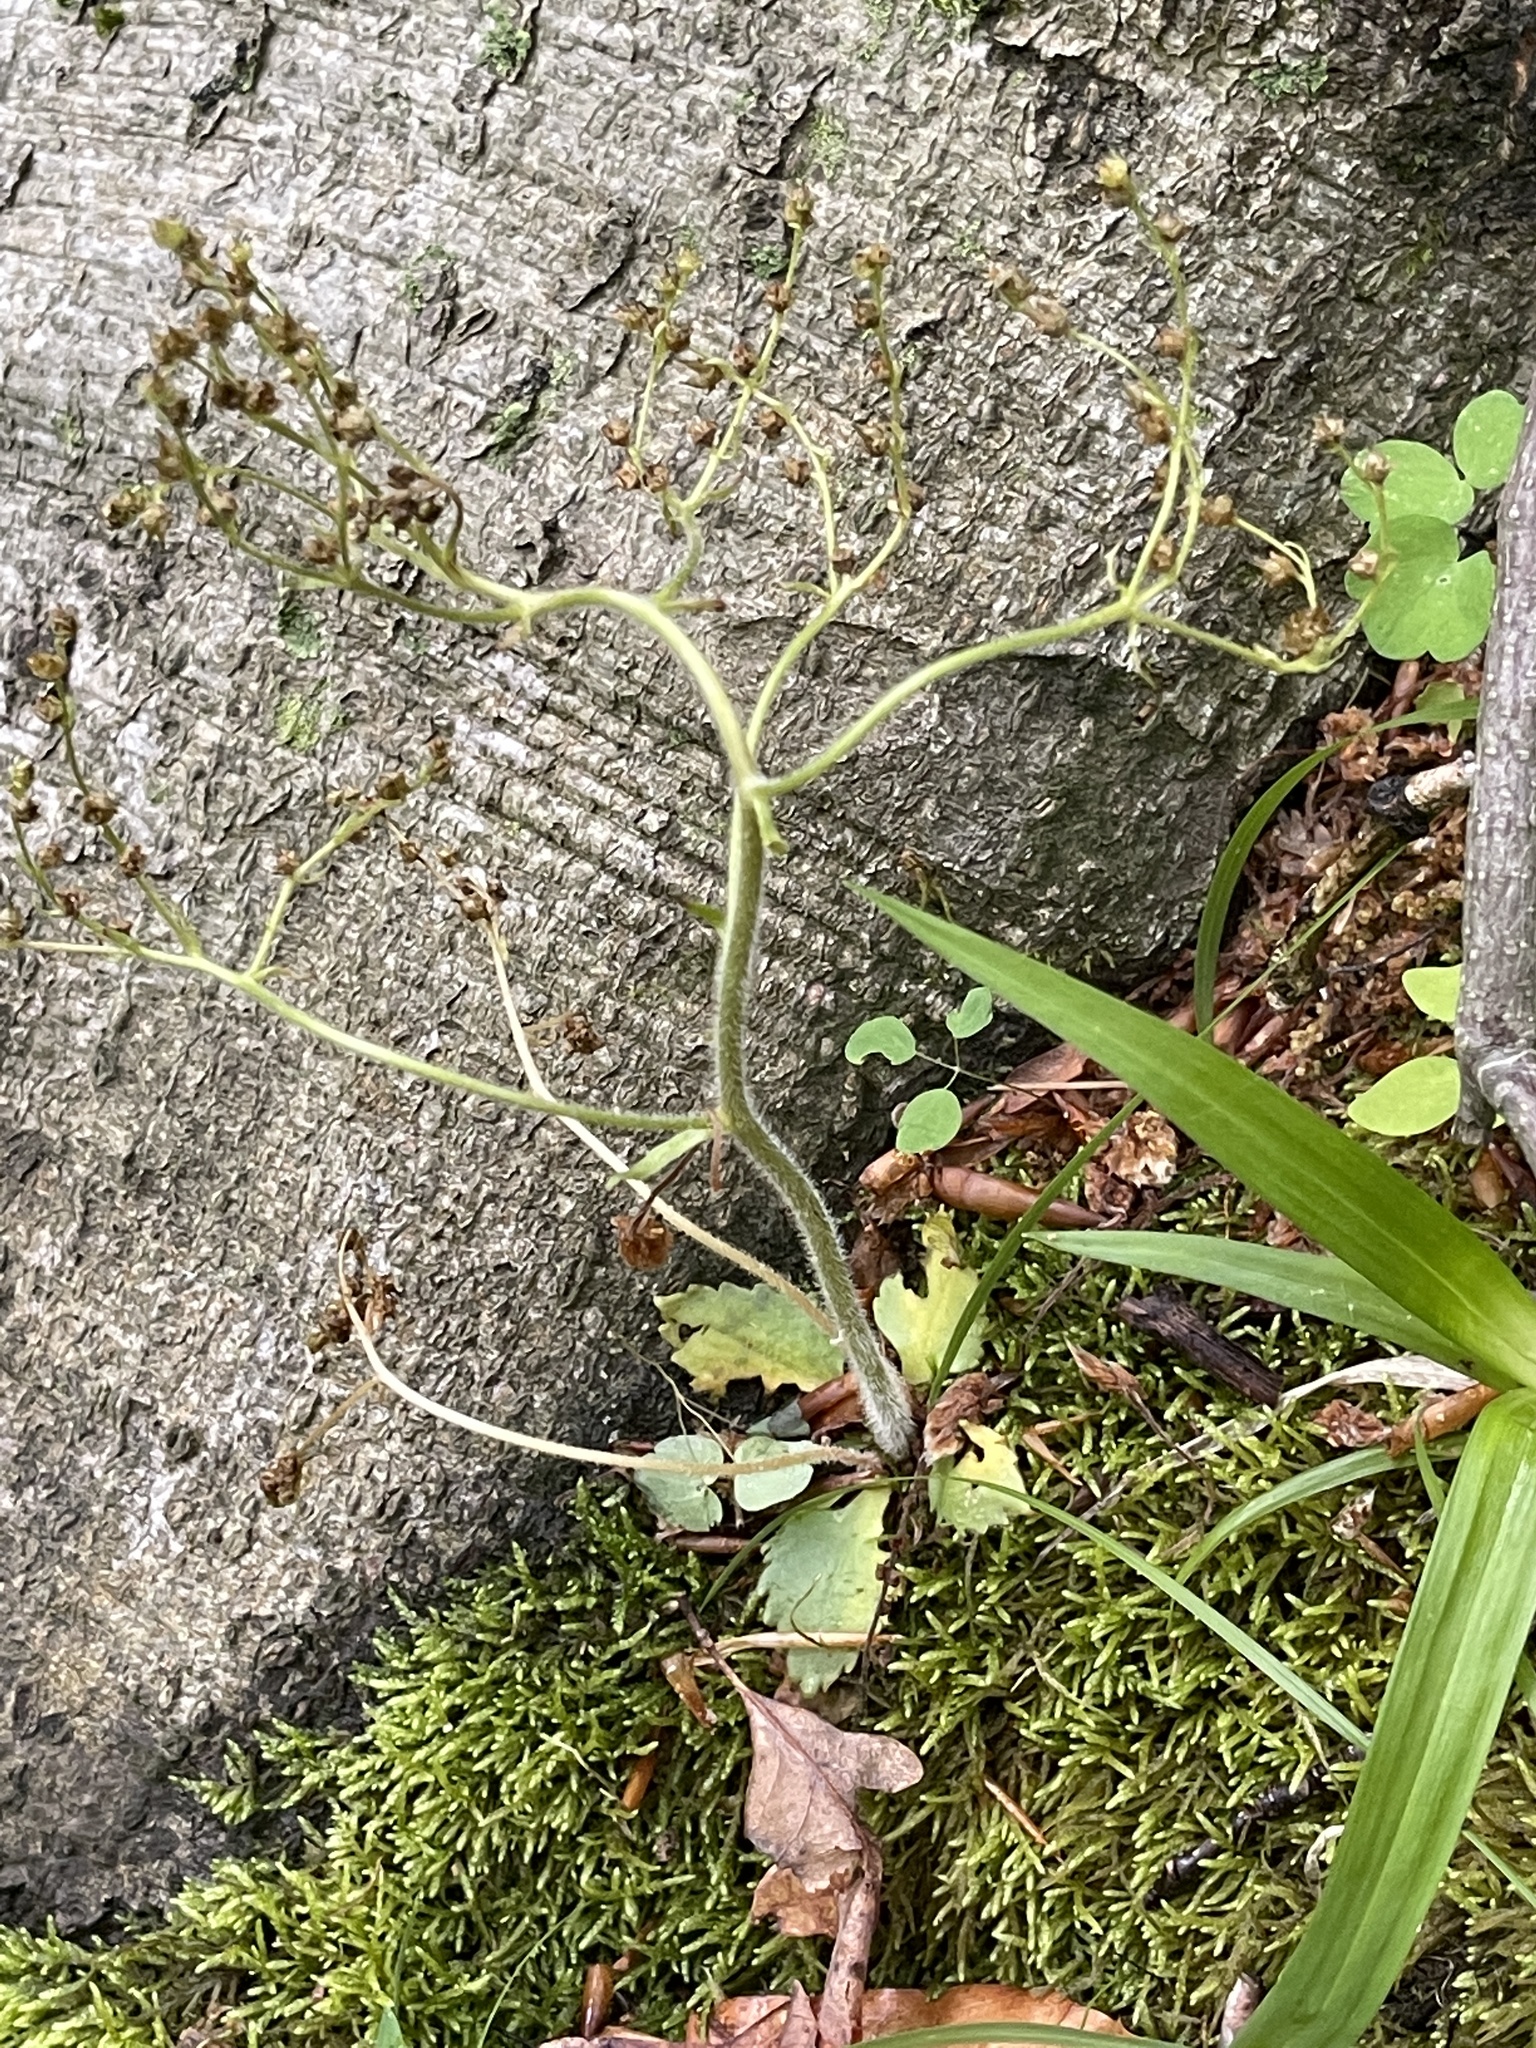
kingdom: Plantae
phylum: Tracheophyta
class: Magnoliopsida
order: Saxifragales
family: Saxifragaceae
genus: Micranthes
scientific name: Micranthes virginiensis
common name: Early saxifrage
